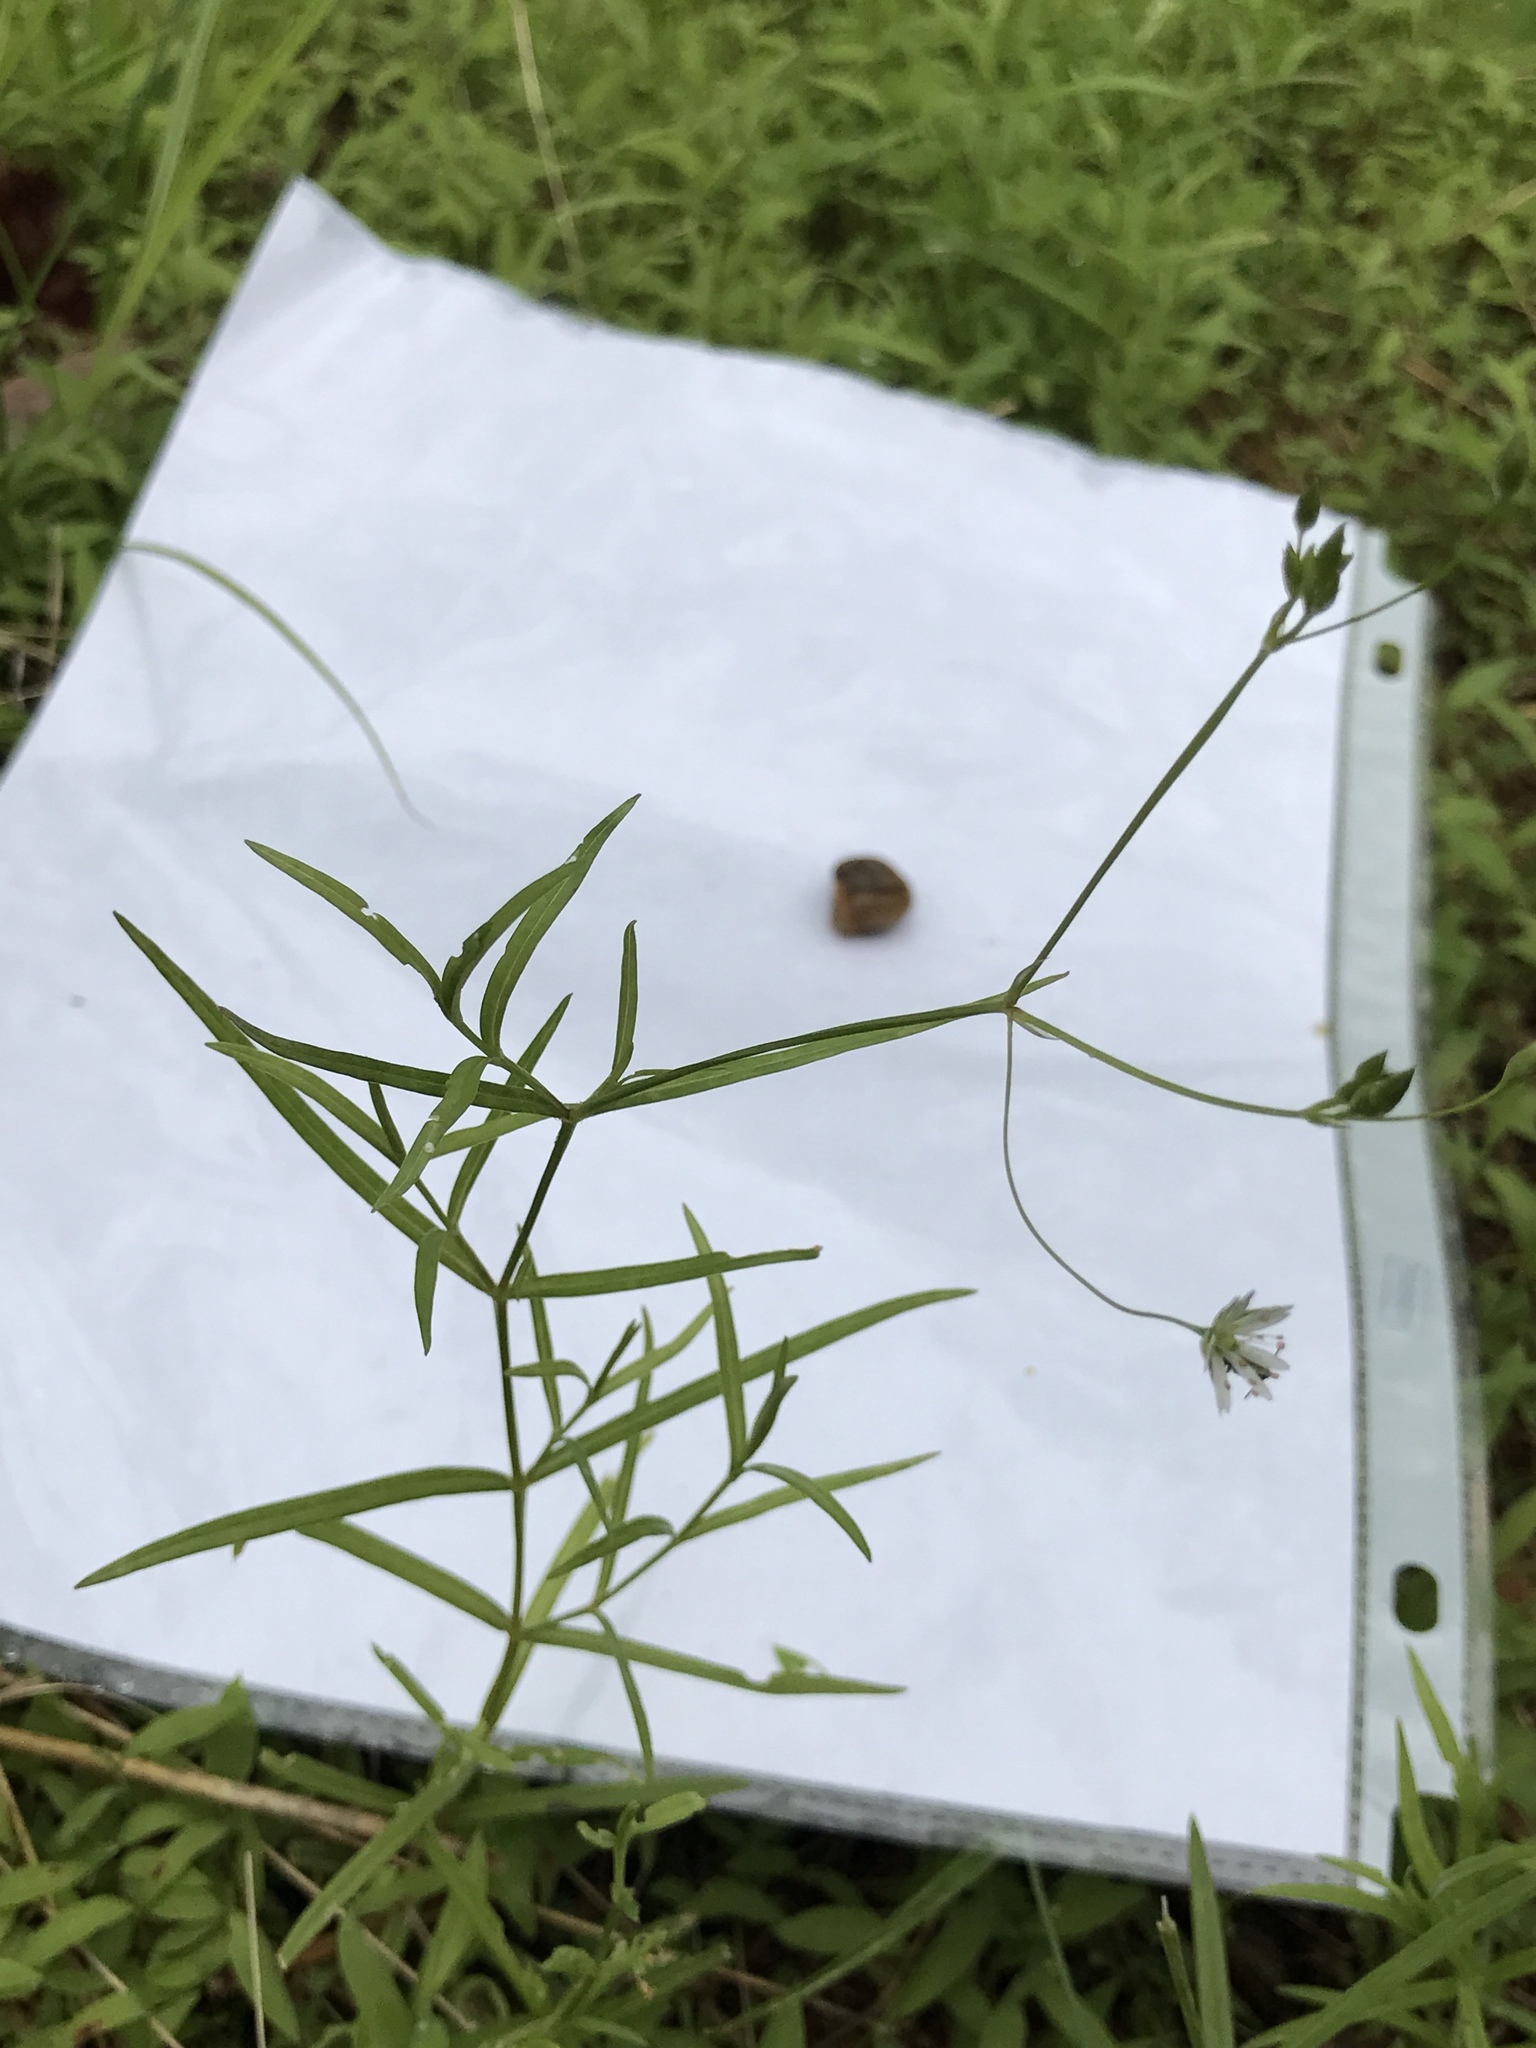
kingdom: Plantae
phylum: Tracheophyta
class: Magnoliopsida
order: Caryophyllales
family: Caryophyllaceae
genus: Stellaria
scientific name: Stellaria graminea
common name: Grass-like starwort
